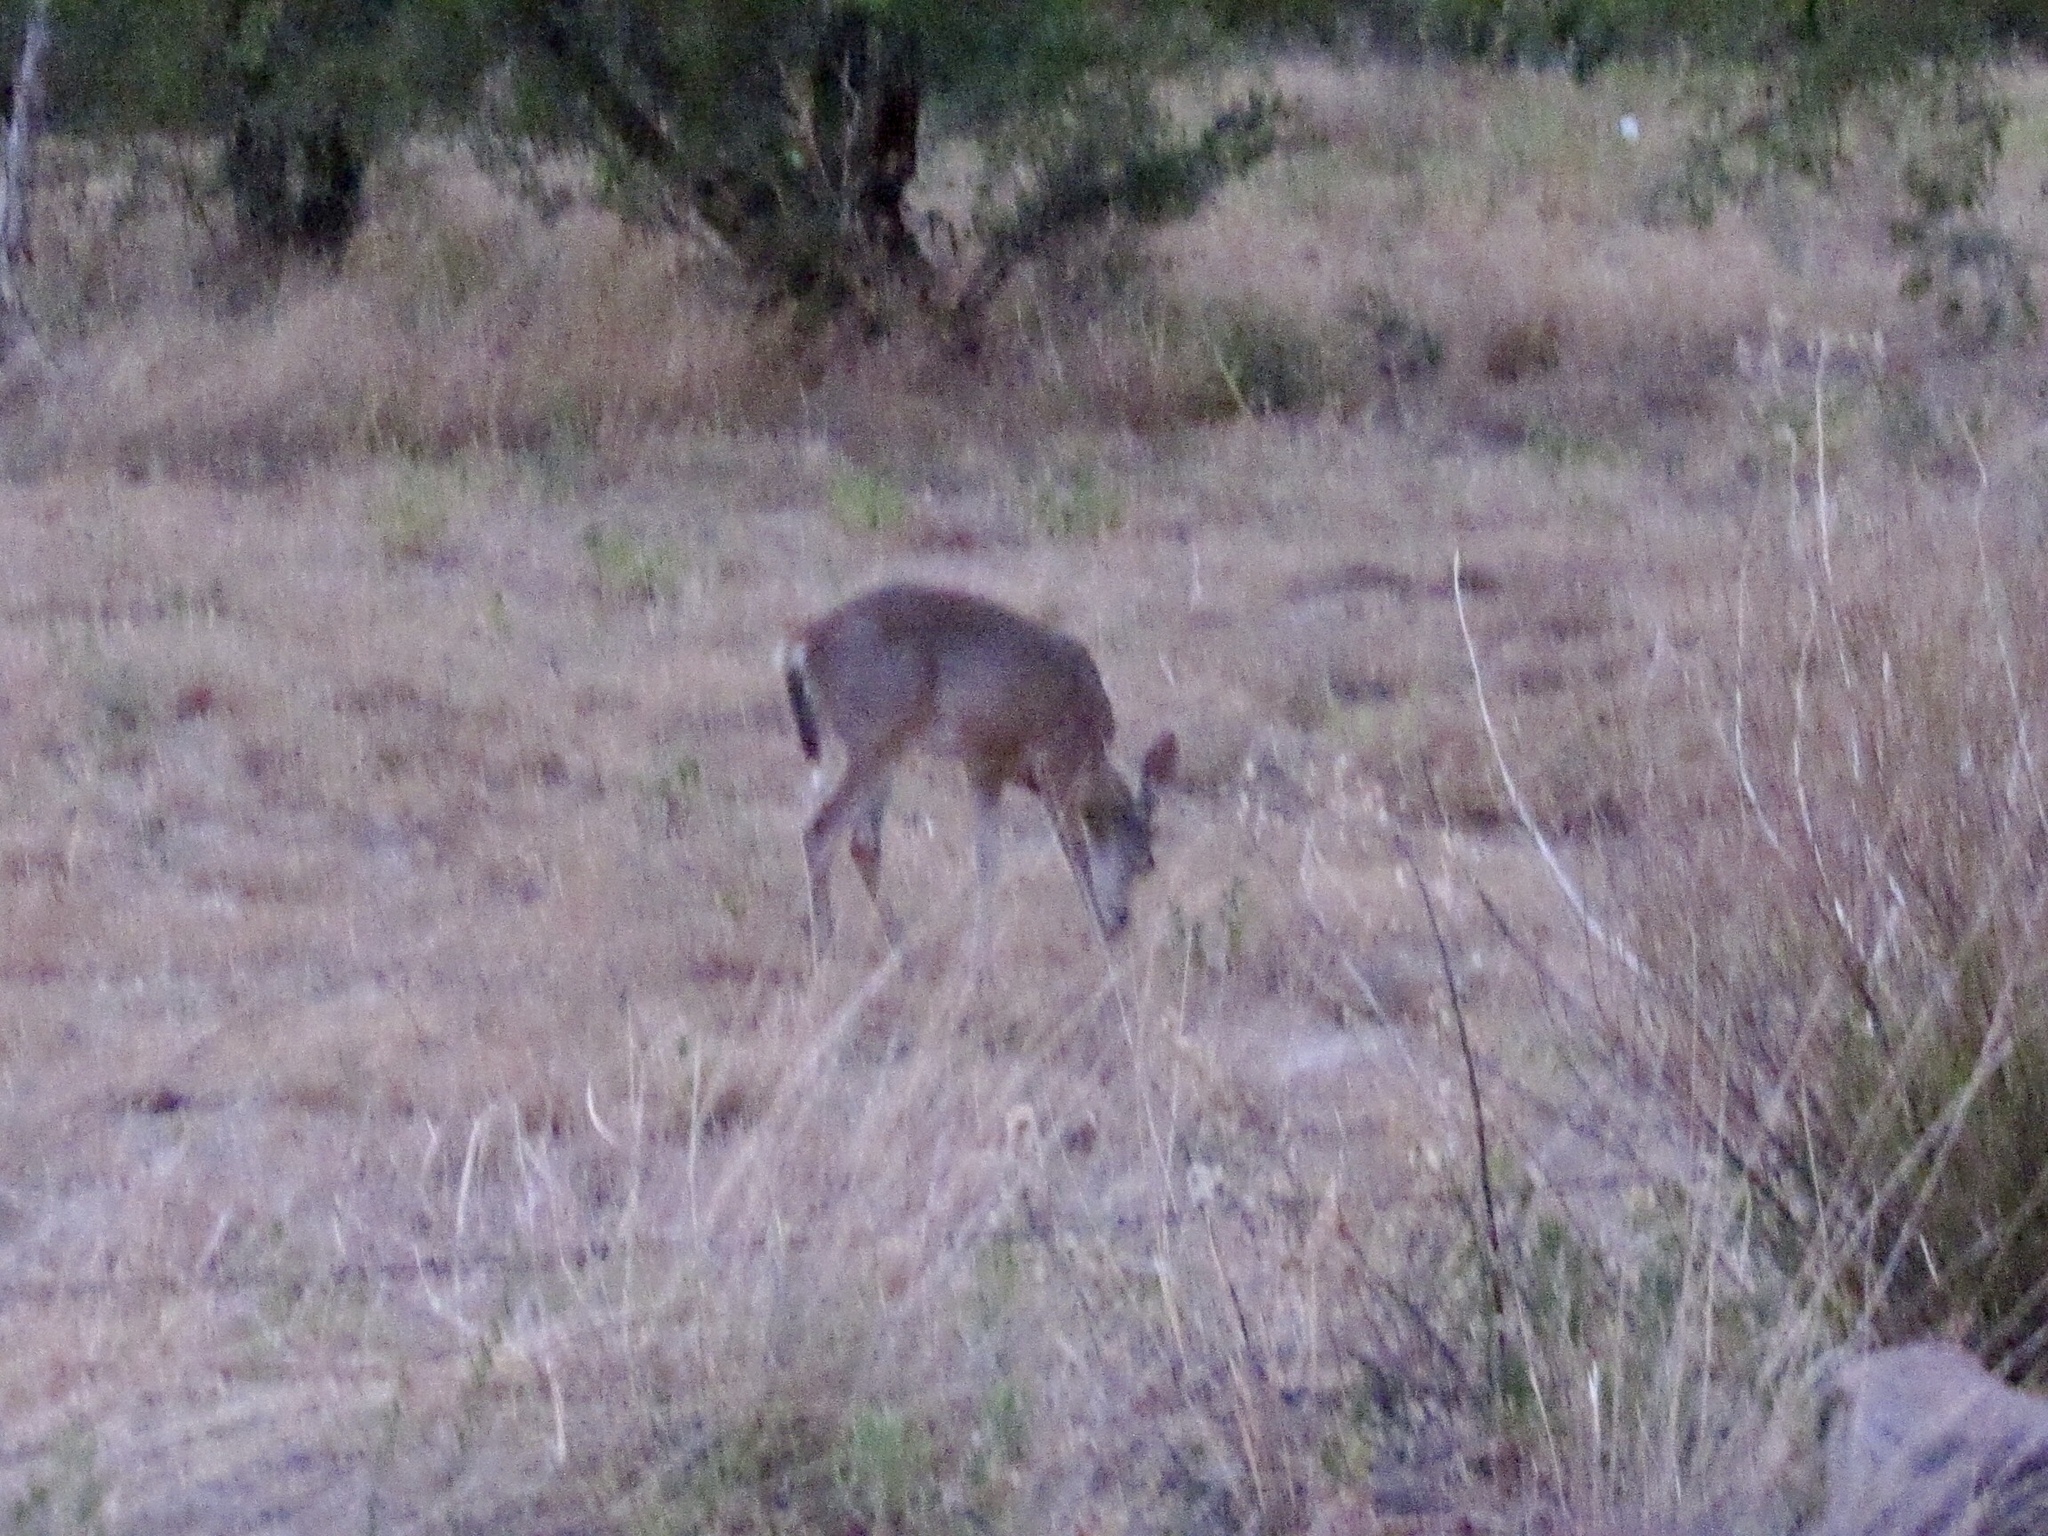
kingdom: Animalia
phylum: Chordata
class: Mammalia
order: Artiodactyla
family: Cervidae
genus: Odocoileus
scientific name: Odocoileus virginianus
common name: White-tailed deer
